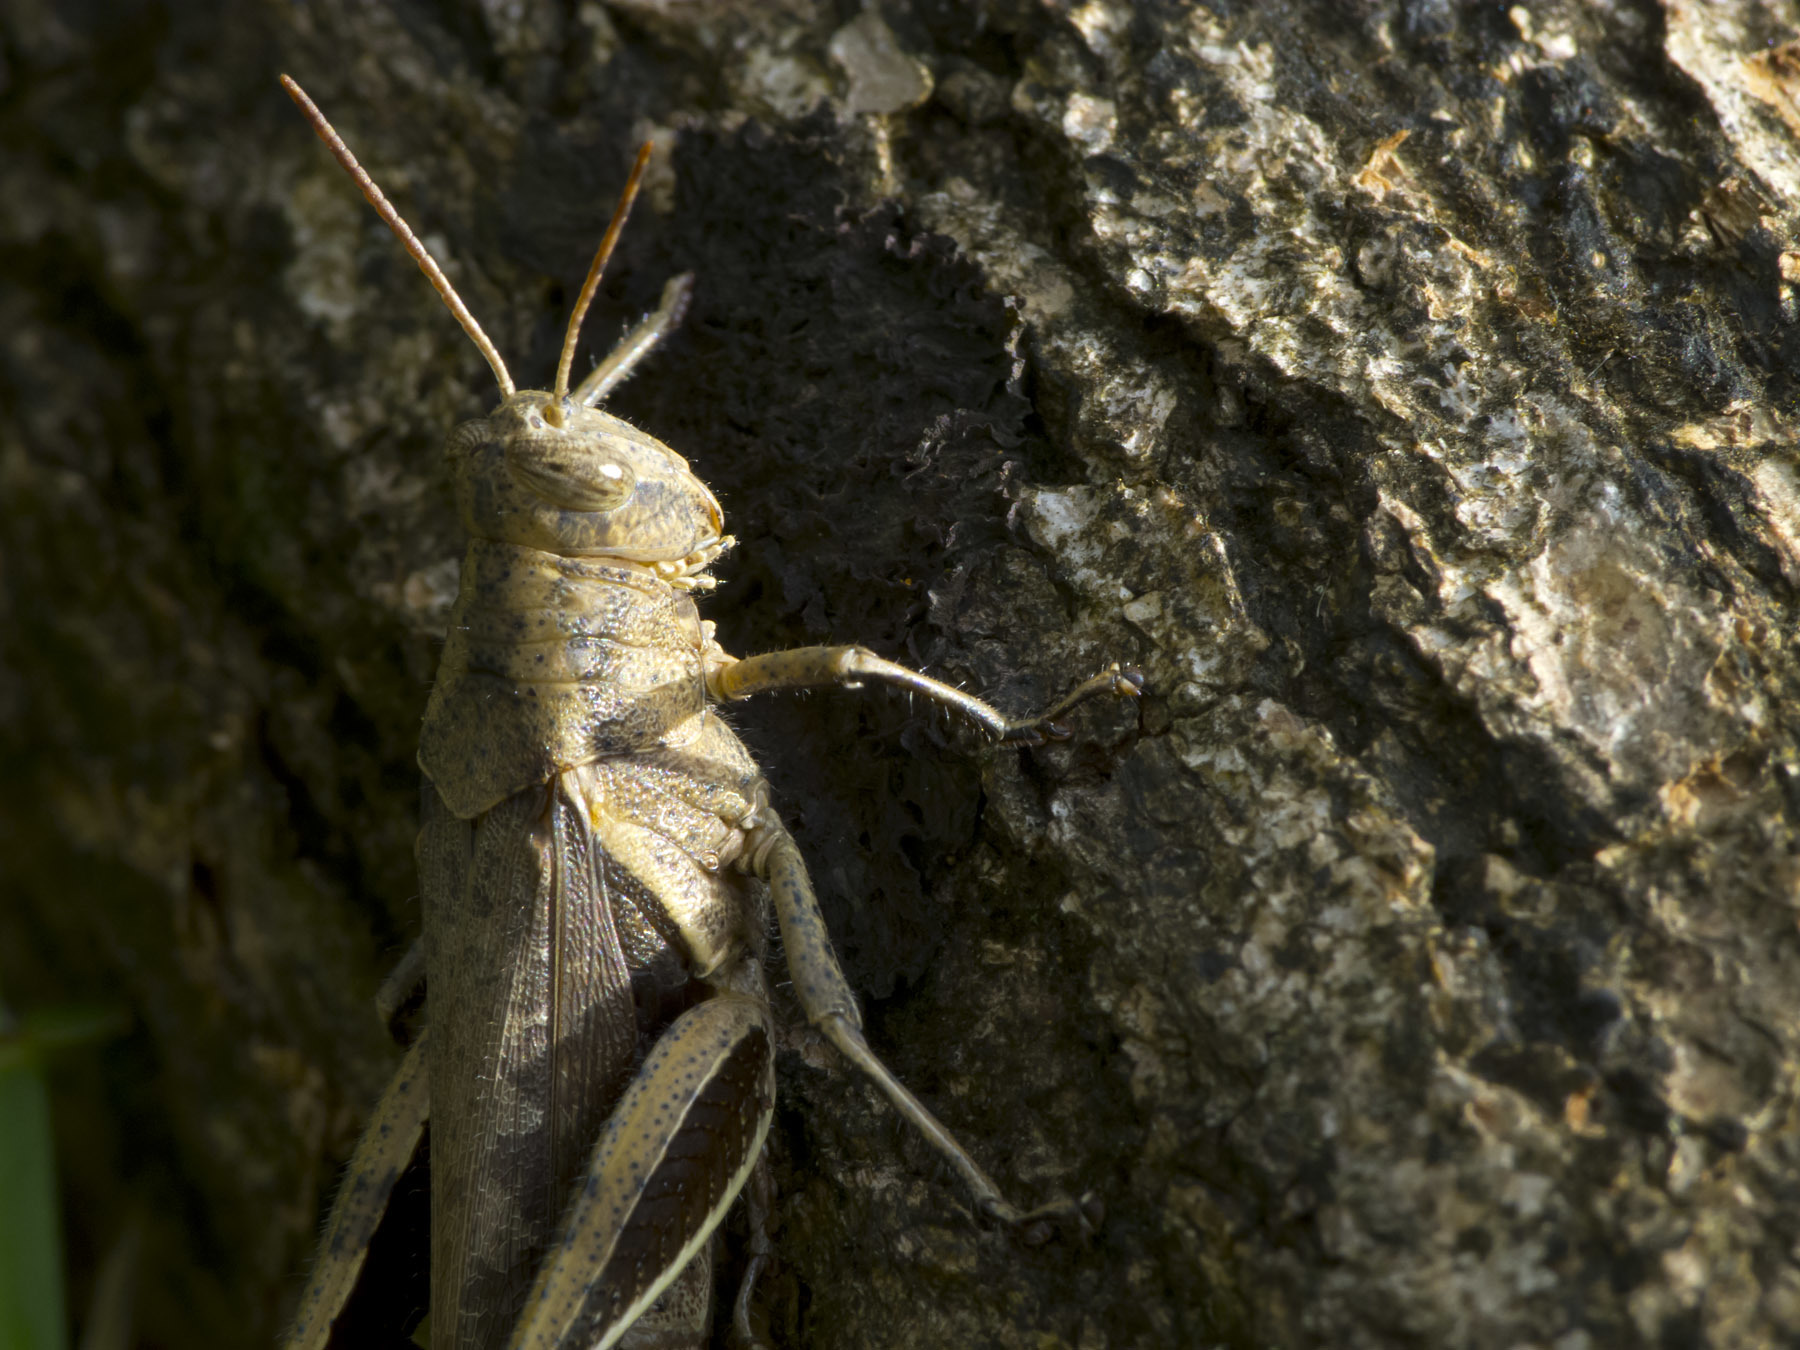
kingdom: Animalia
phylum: Arthropoda
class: Insecta
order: Orthoptera
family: Acrididae
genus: Abracris
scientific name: Abracris flavolineata
